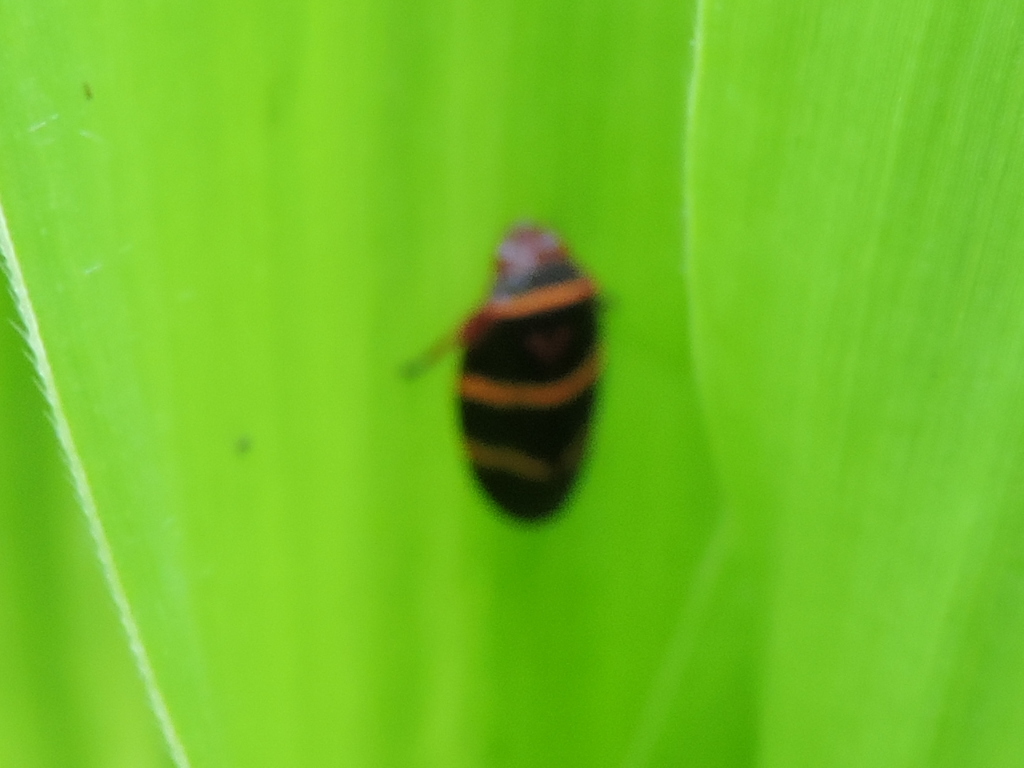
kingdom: Animalia
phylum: Arthropoda
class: Insecta
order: Hemiptera
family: Cercopidae
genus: Prosapia
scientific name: Prosapia bicincta
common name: Twolined spittlebug
